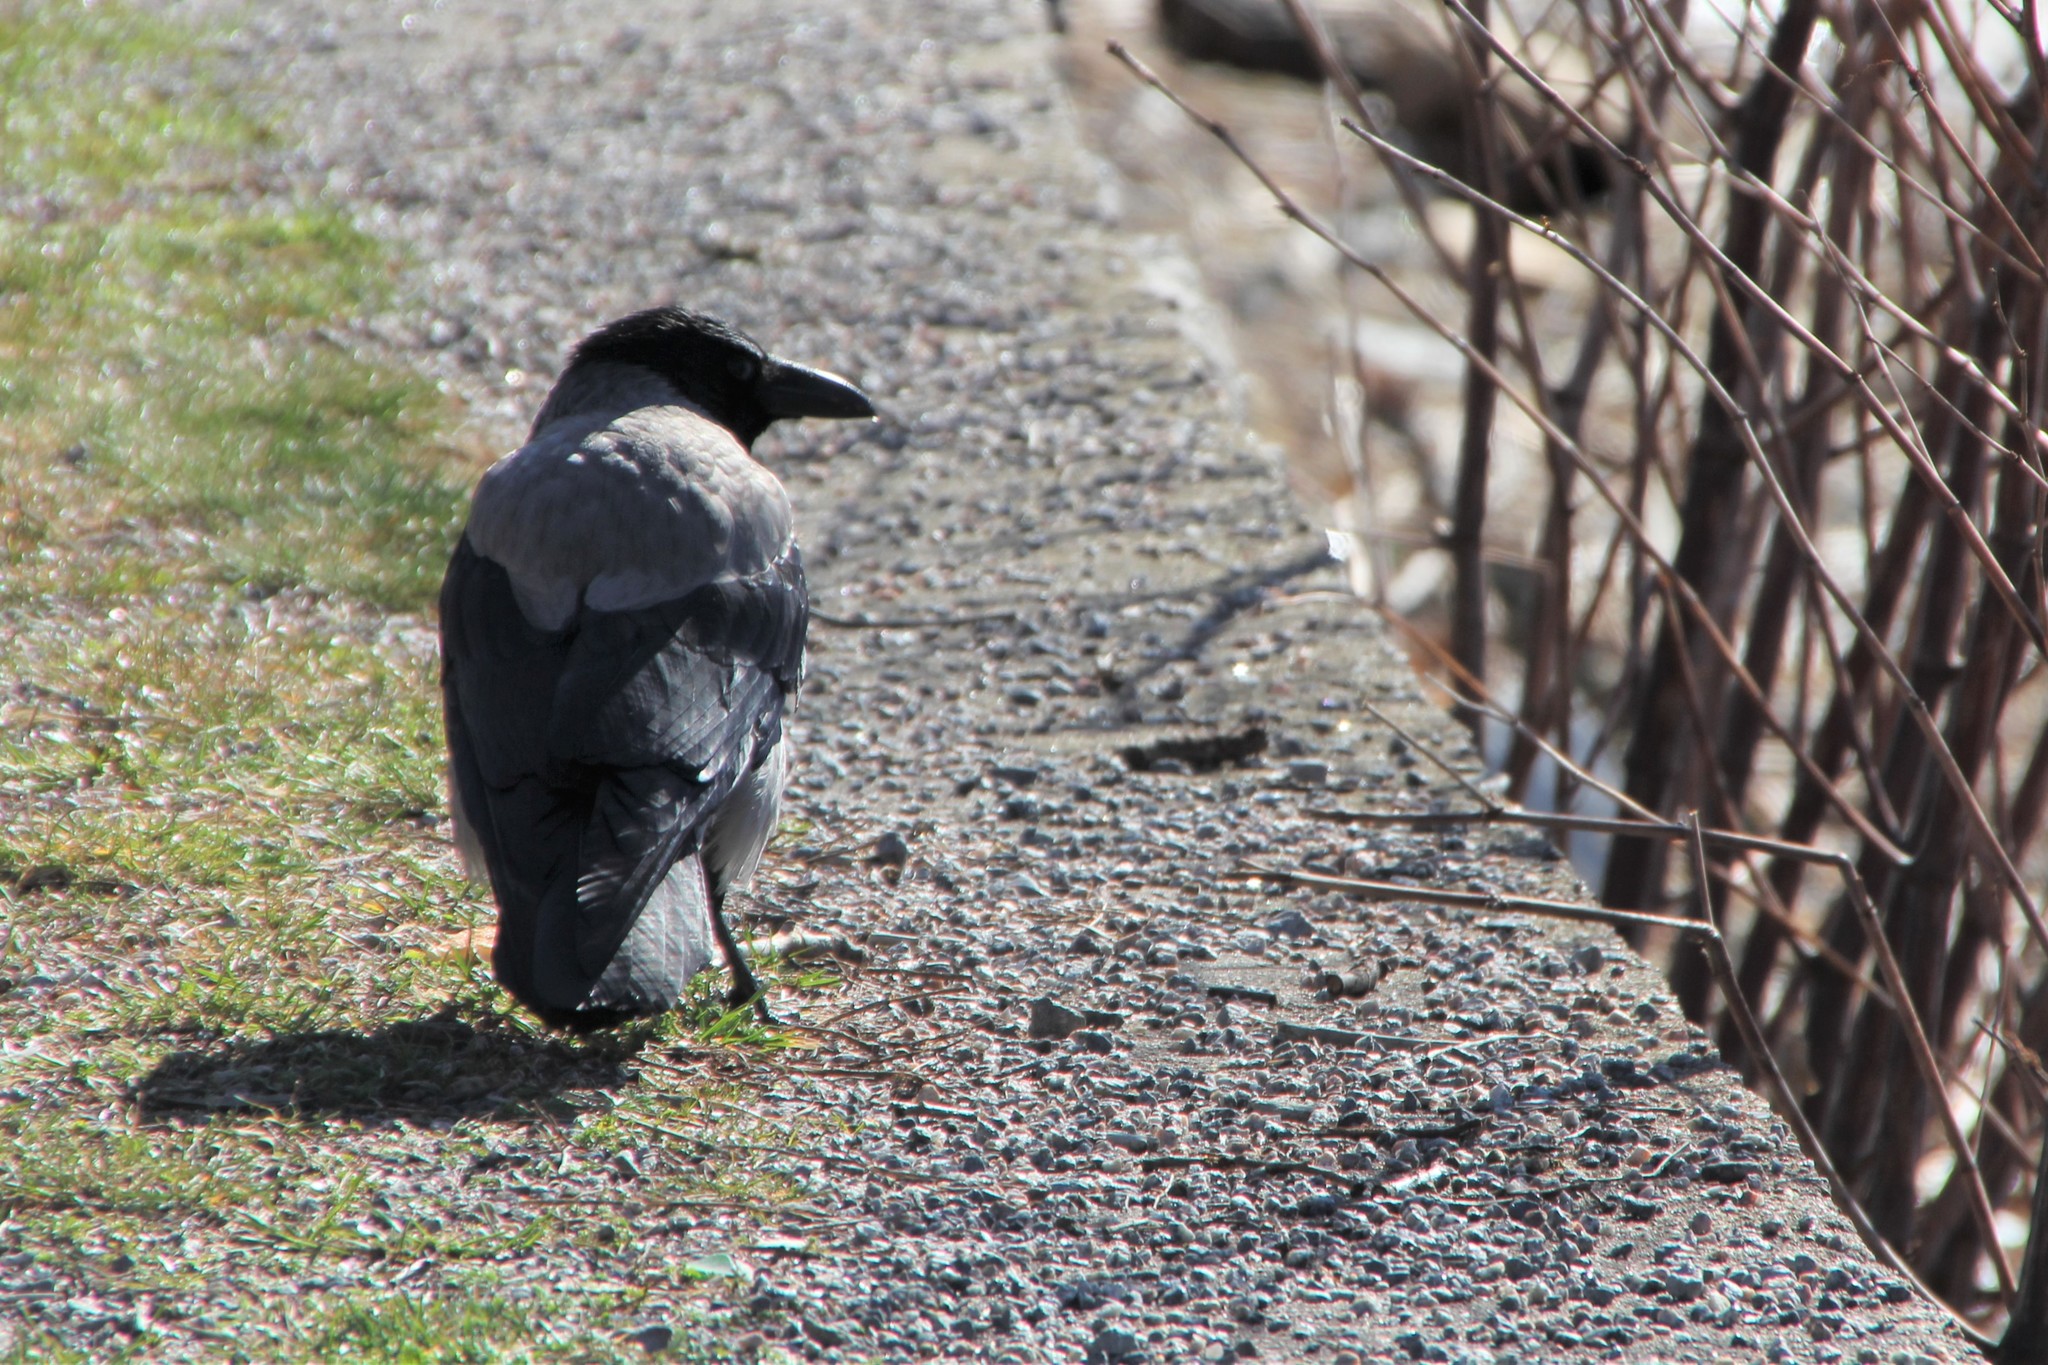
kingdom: Animalia
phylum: Chordata
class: Aves
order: Passeriformes
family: Corvidae
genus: Corvus
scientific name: Corvus cornix
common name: Hooded crow
